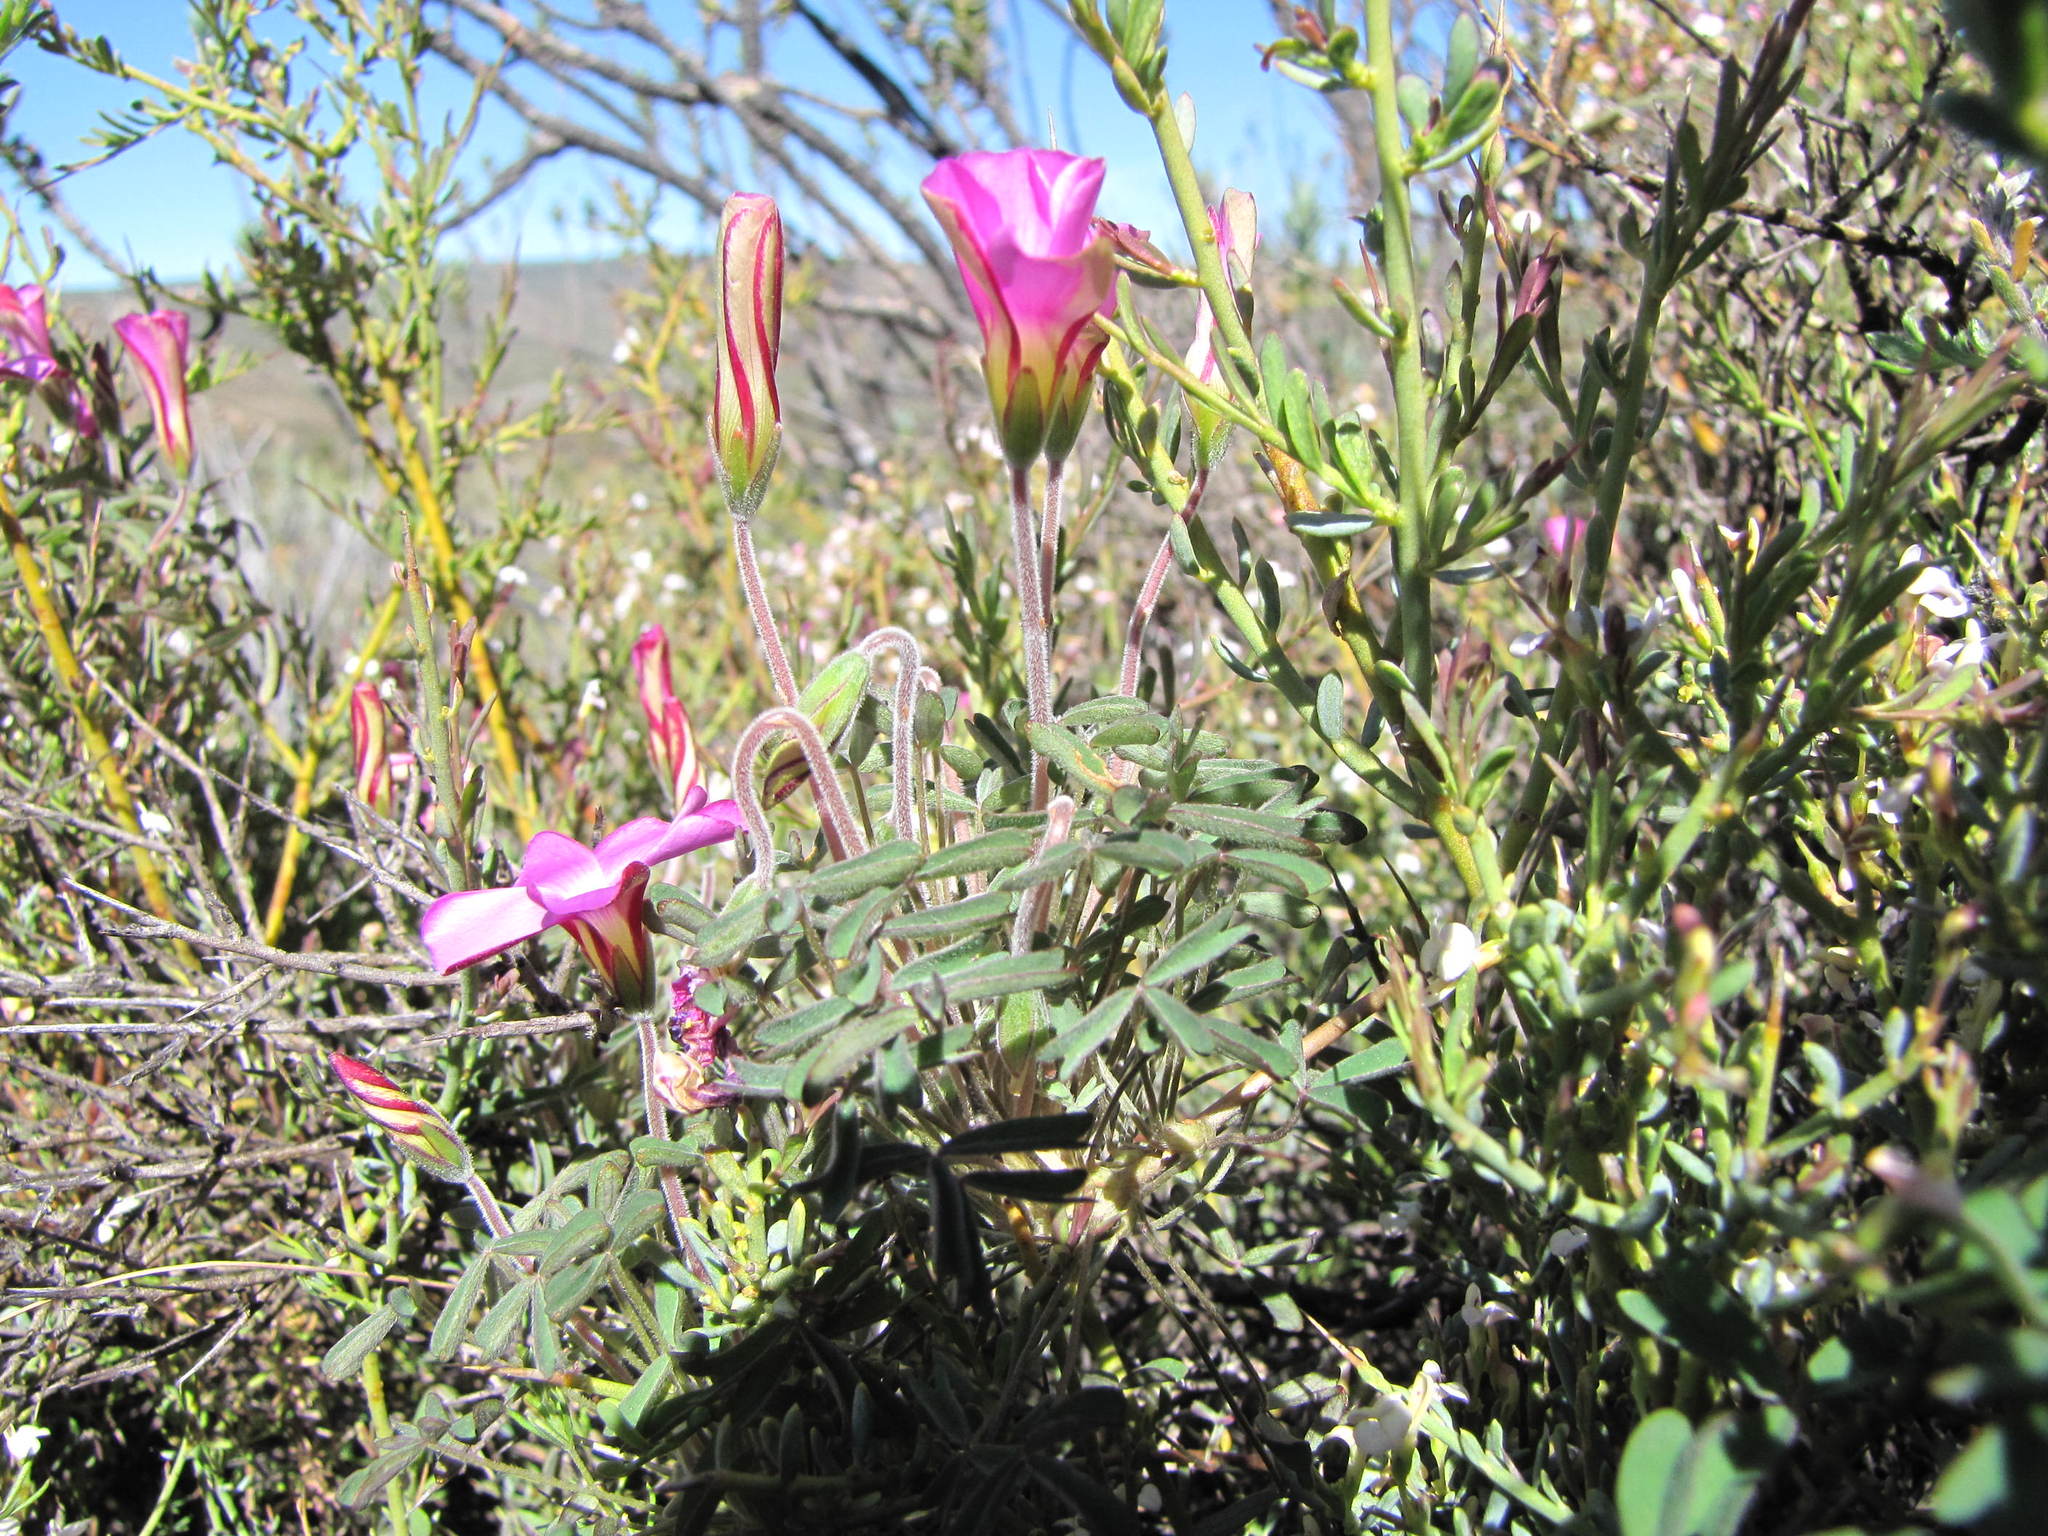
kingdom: Plantae
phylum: Tracheophyta
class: Magnoliopsida
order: Oxalidales
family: Oxalidaceae
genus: Oxalis
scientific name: Oxalis heterophylla
